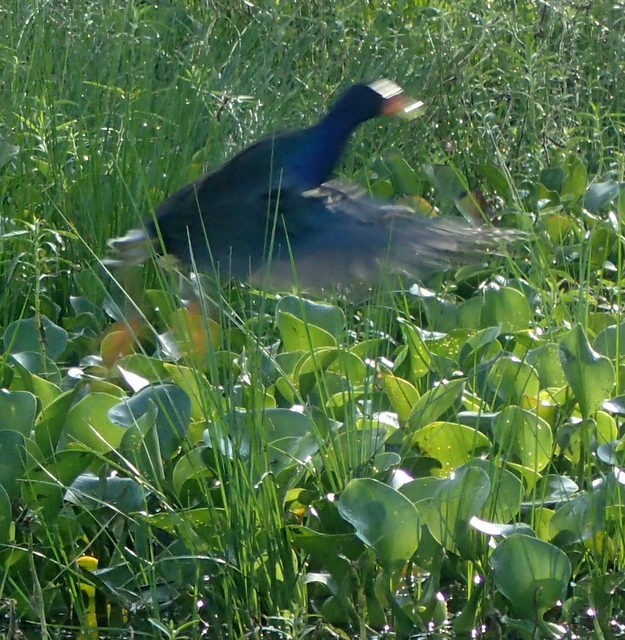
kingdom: Animalia
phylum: Chordata
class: Aves
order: Gruiformes
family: Rallidae
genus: Porphyrio
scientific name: Porphyrio martinica
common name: Purple gallinule
